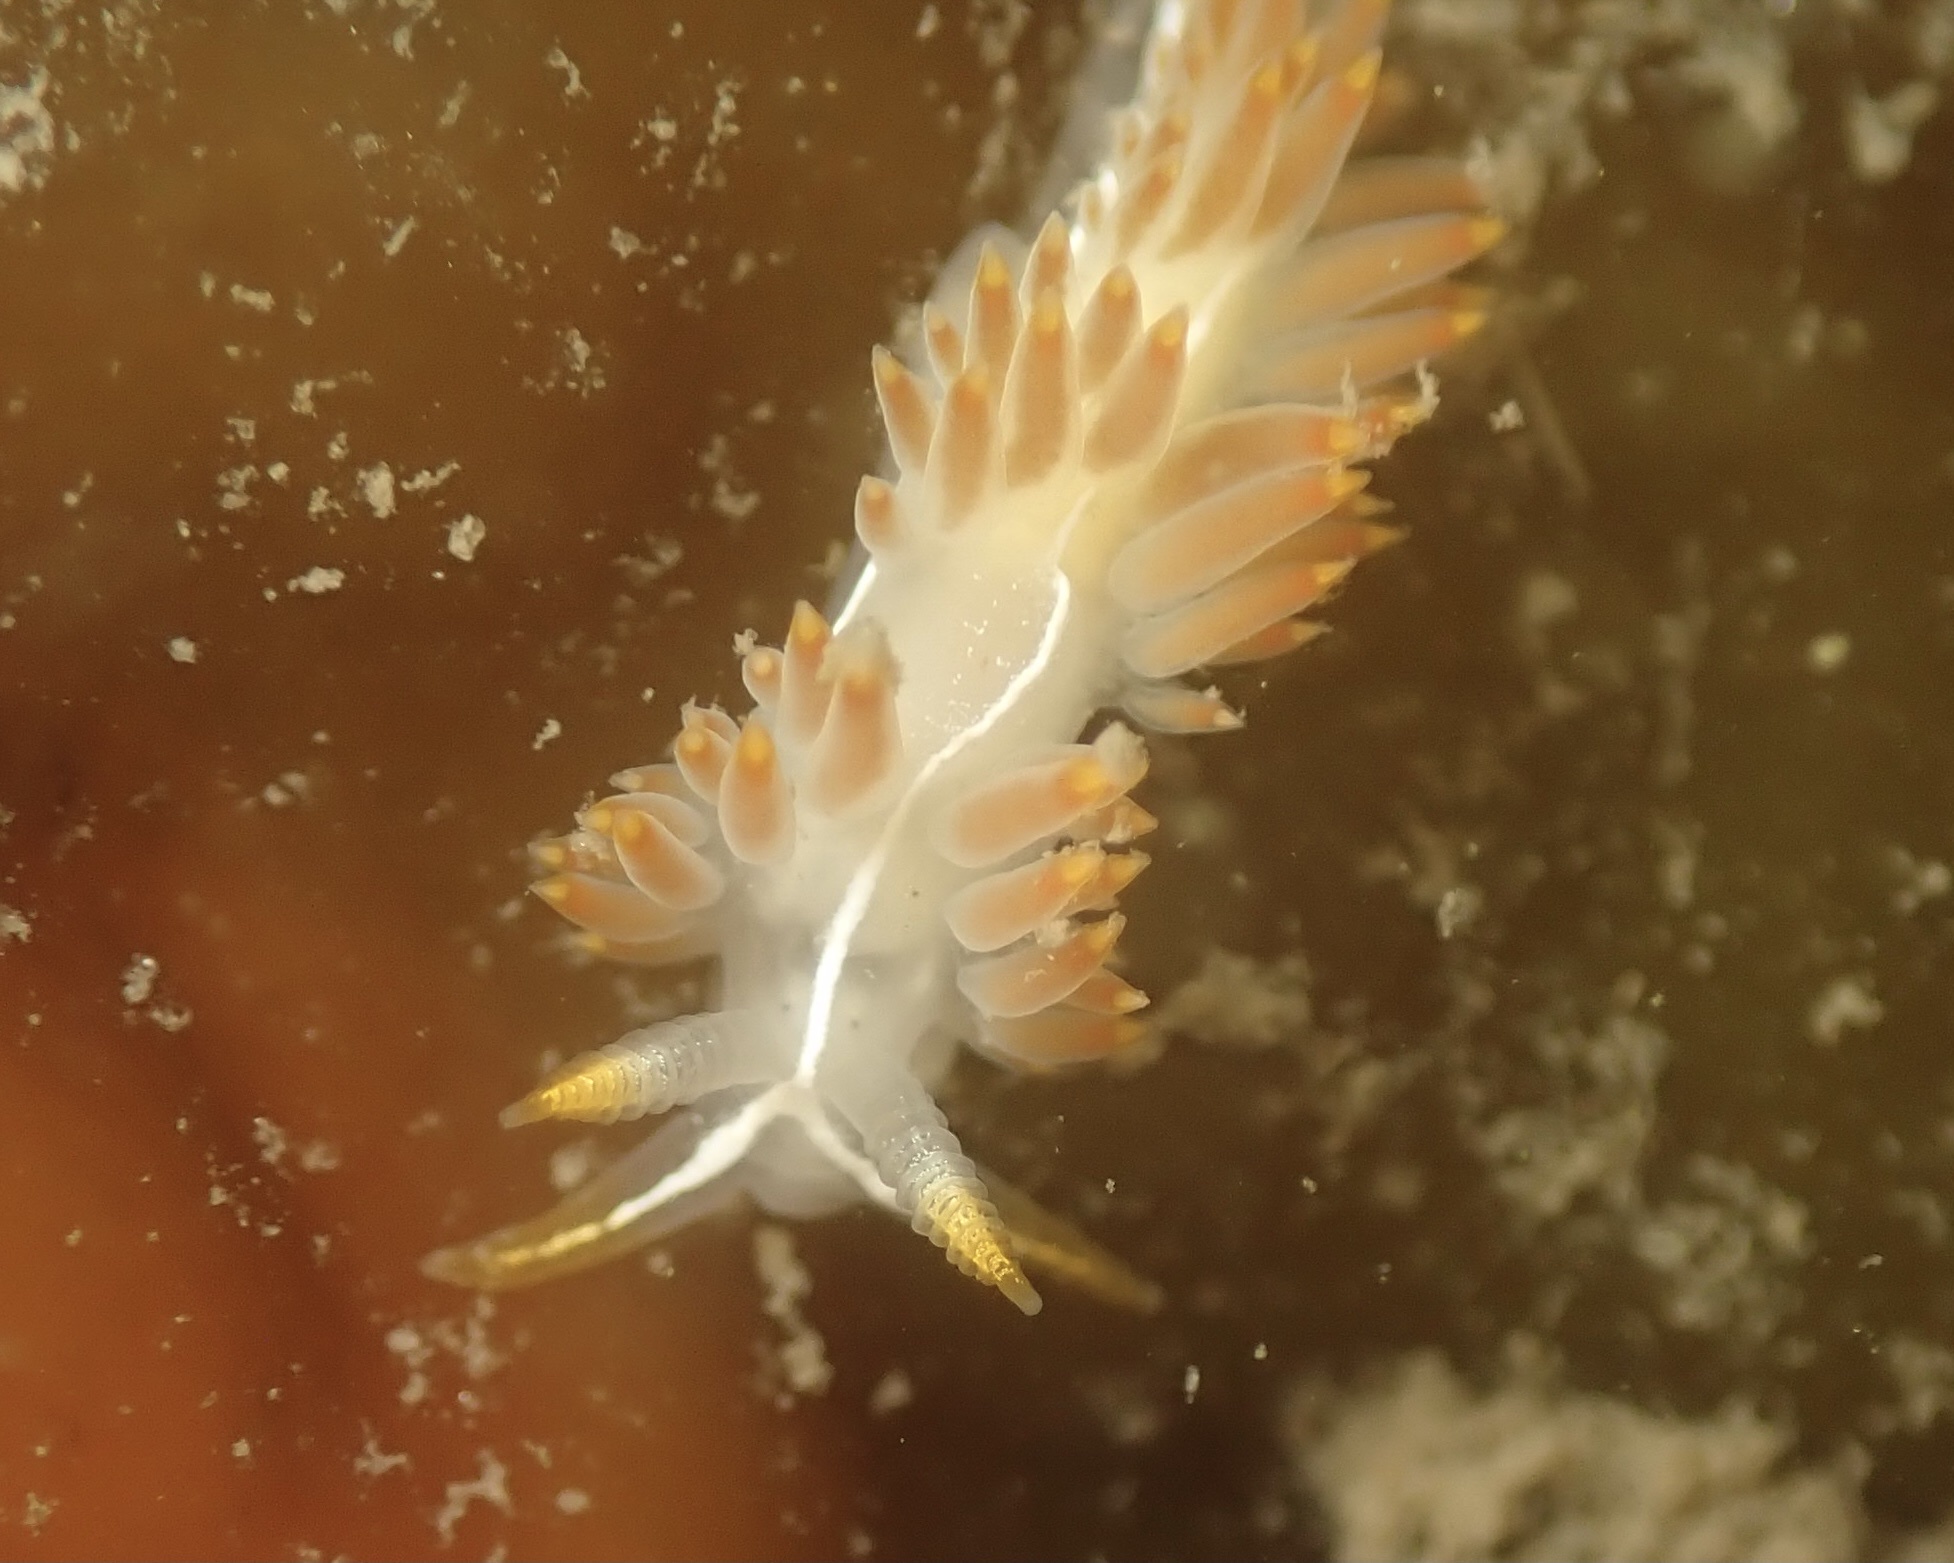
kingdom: Animalia
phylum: Mollusca
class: Gastropoda
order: Nudibranchia
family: Coryphellidae
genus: Coryphella
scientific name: Coryphella trilineata
